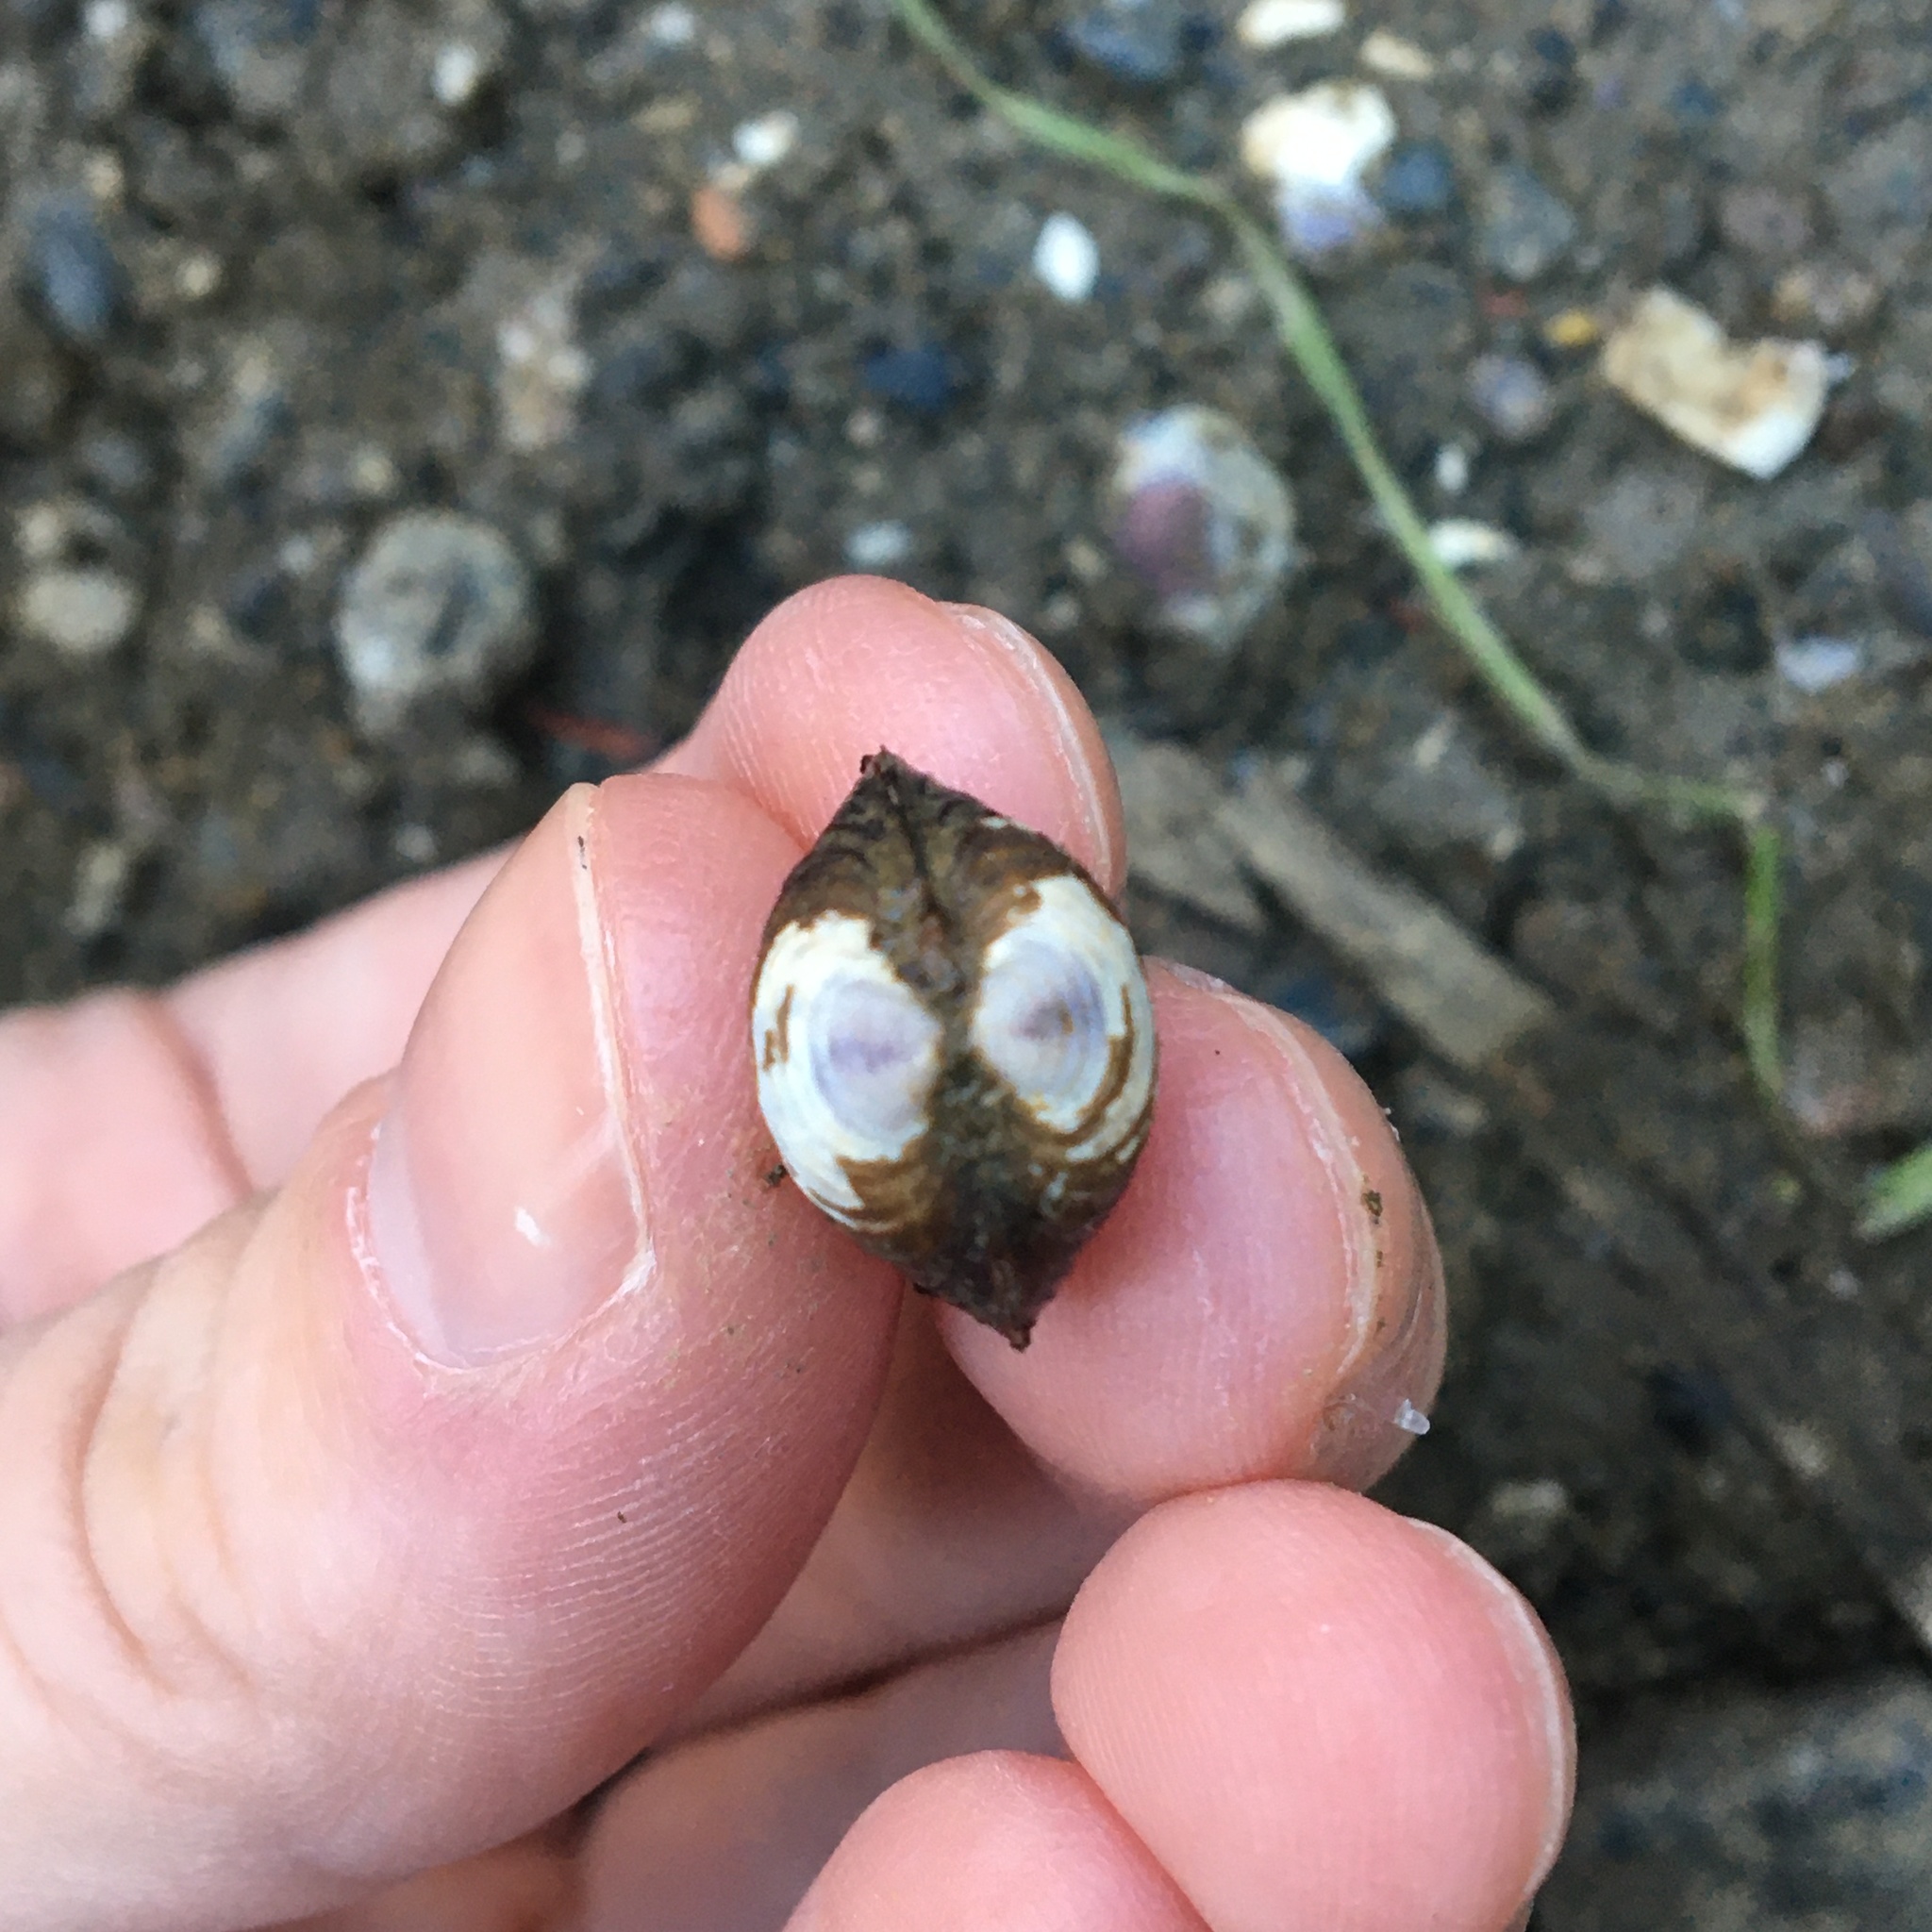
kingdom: Animalia
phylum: Mollusca
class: Bivalvia
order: Venerida
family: Cyrenidae
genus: Corbicula
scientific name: Corbicula fluminea
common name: Asian clam
